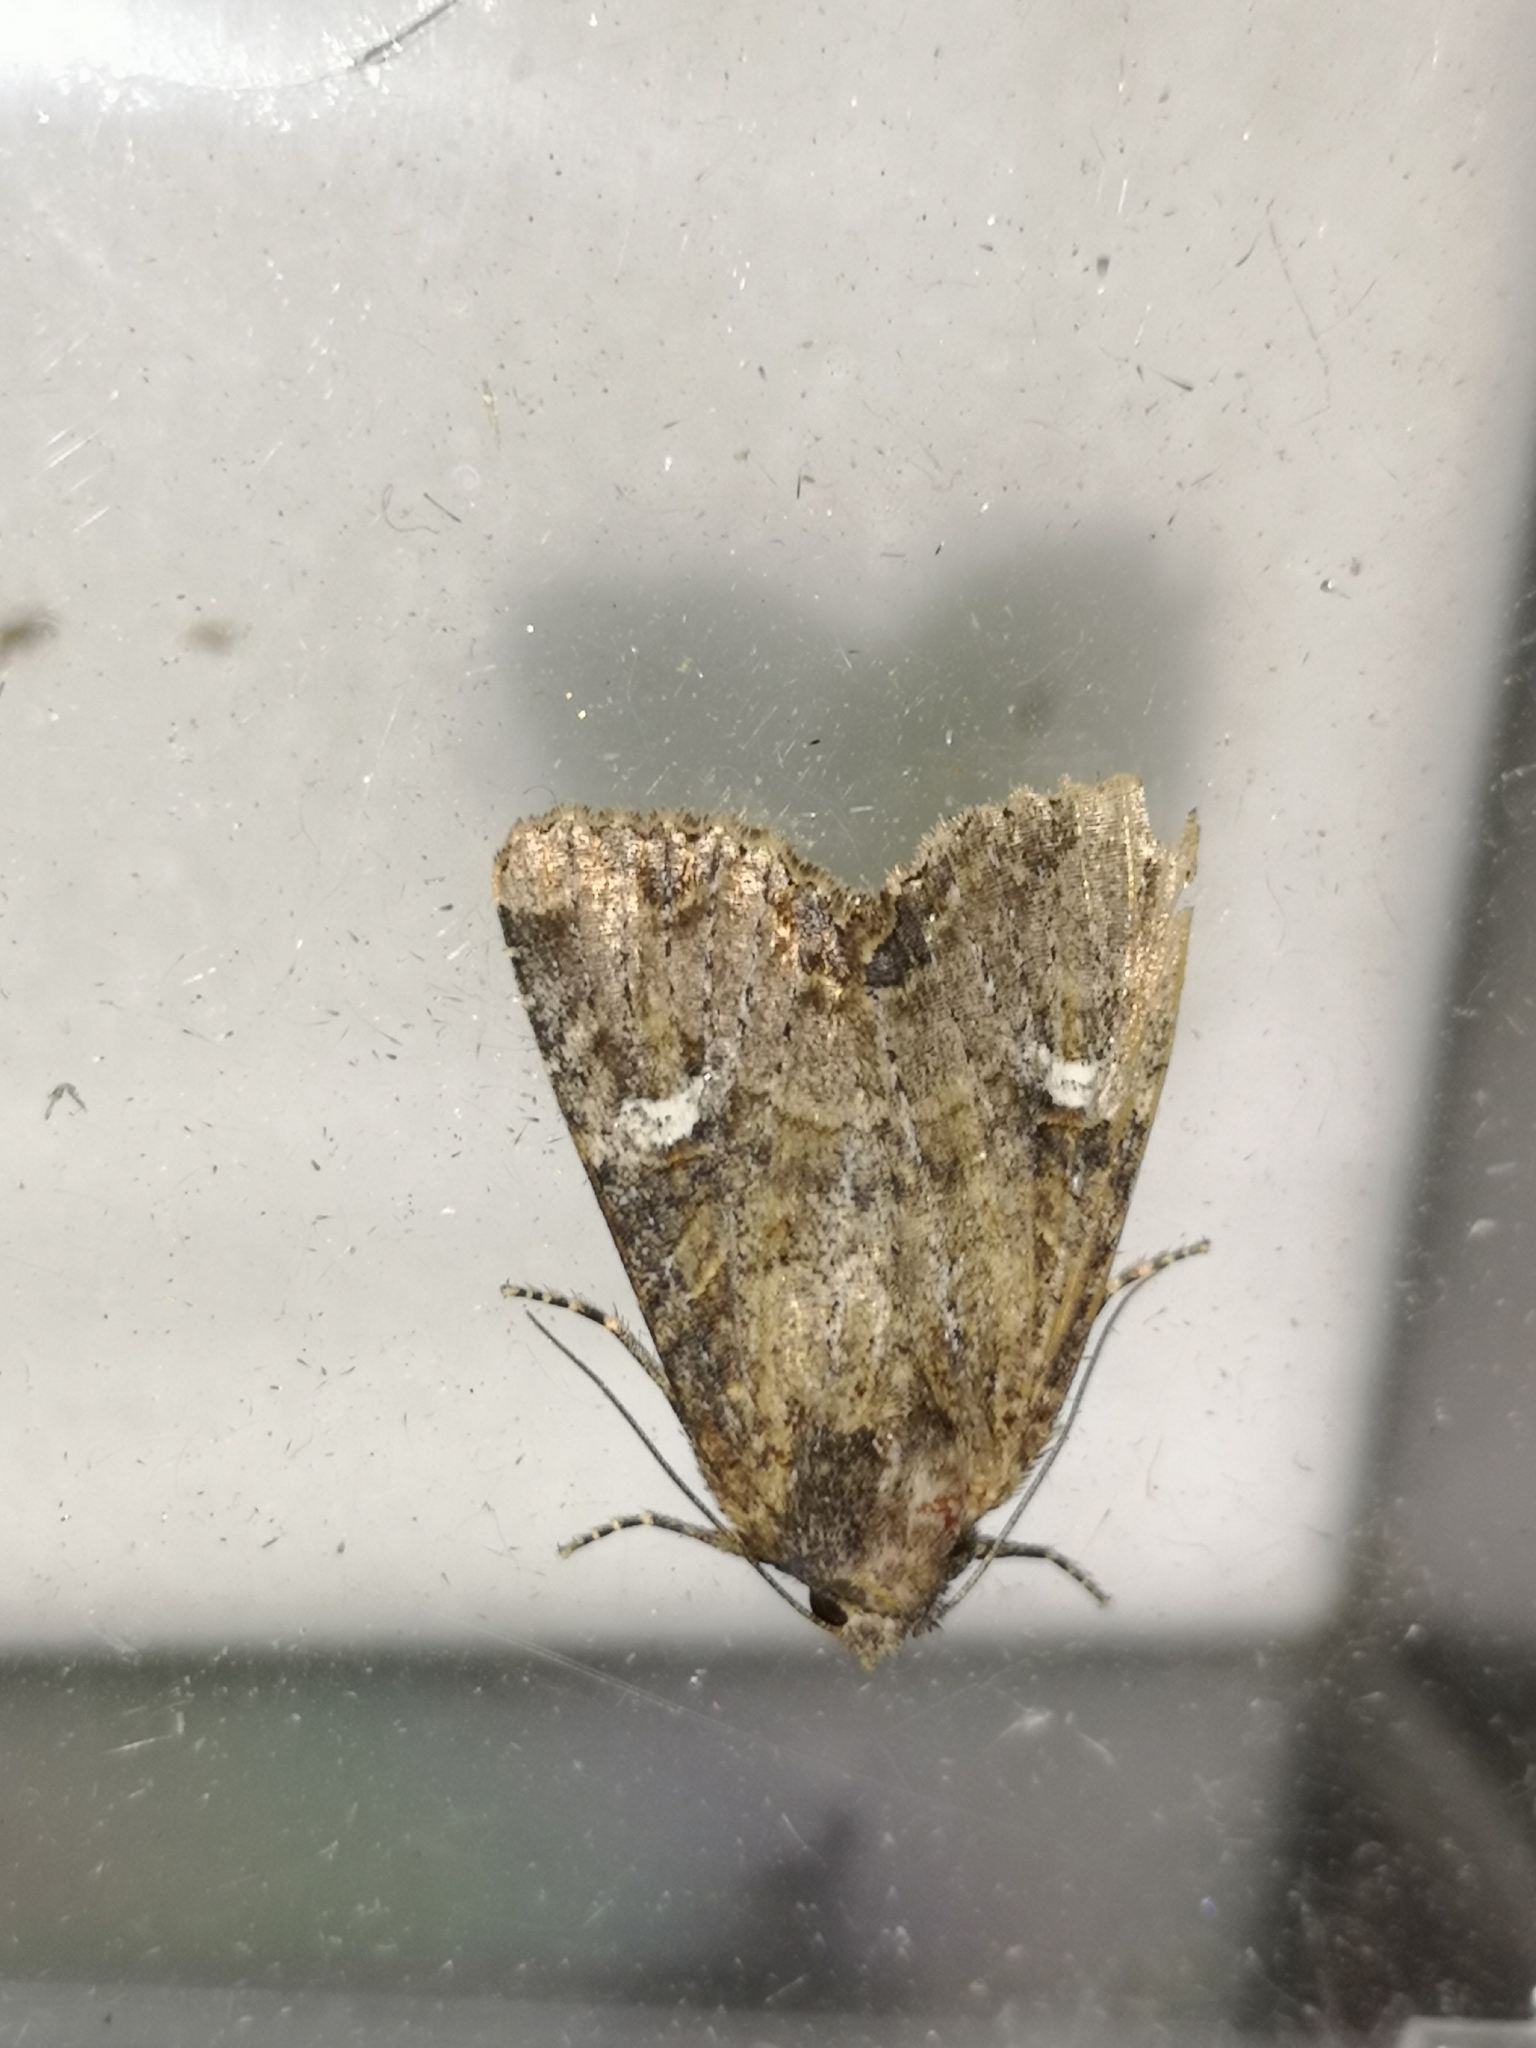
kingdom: Animalia
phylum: Arthropoda
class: Insecta
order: Lepidoptera
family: Noctuidae
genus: Mesapamea
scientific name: Mesapamea
